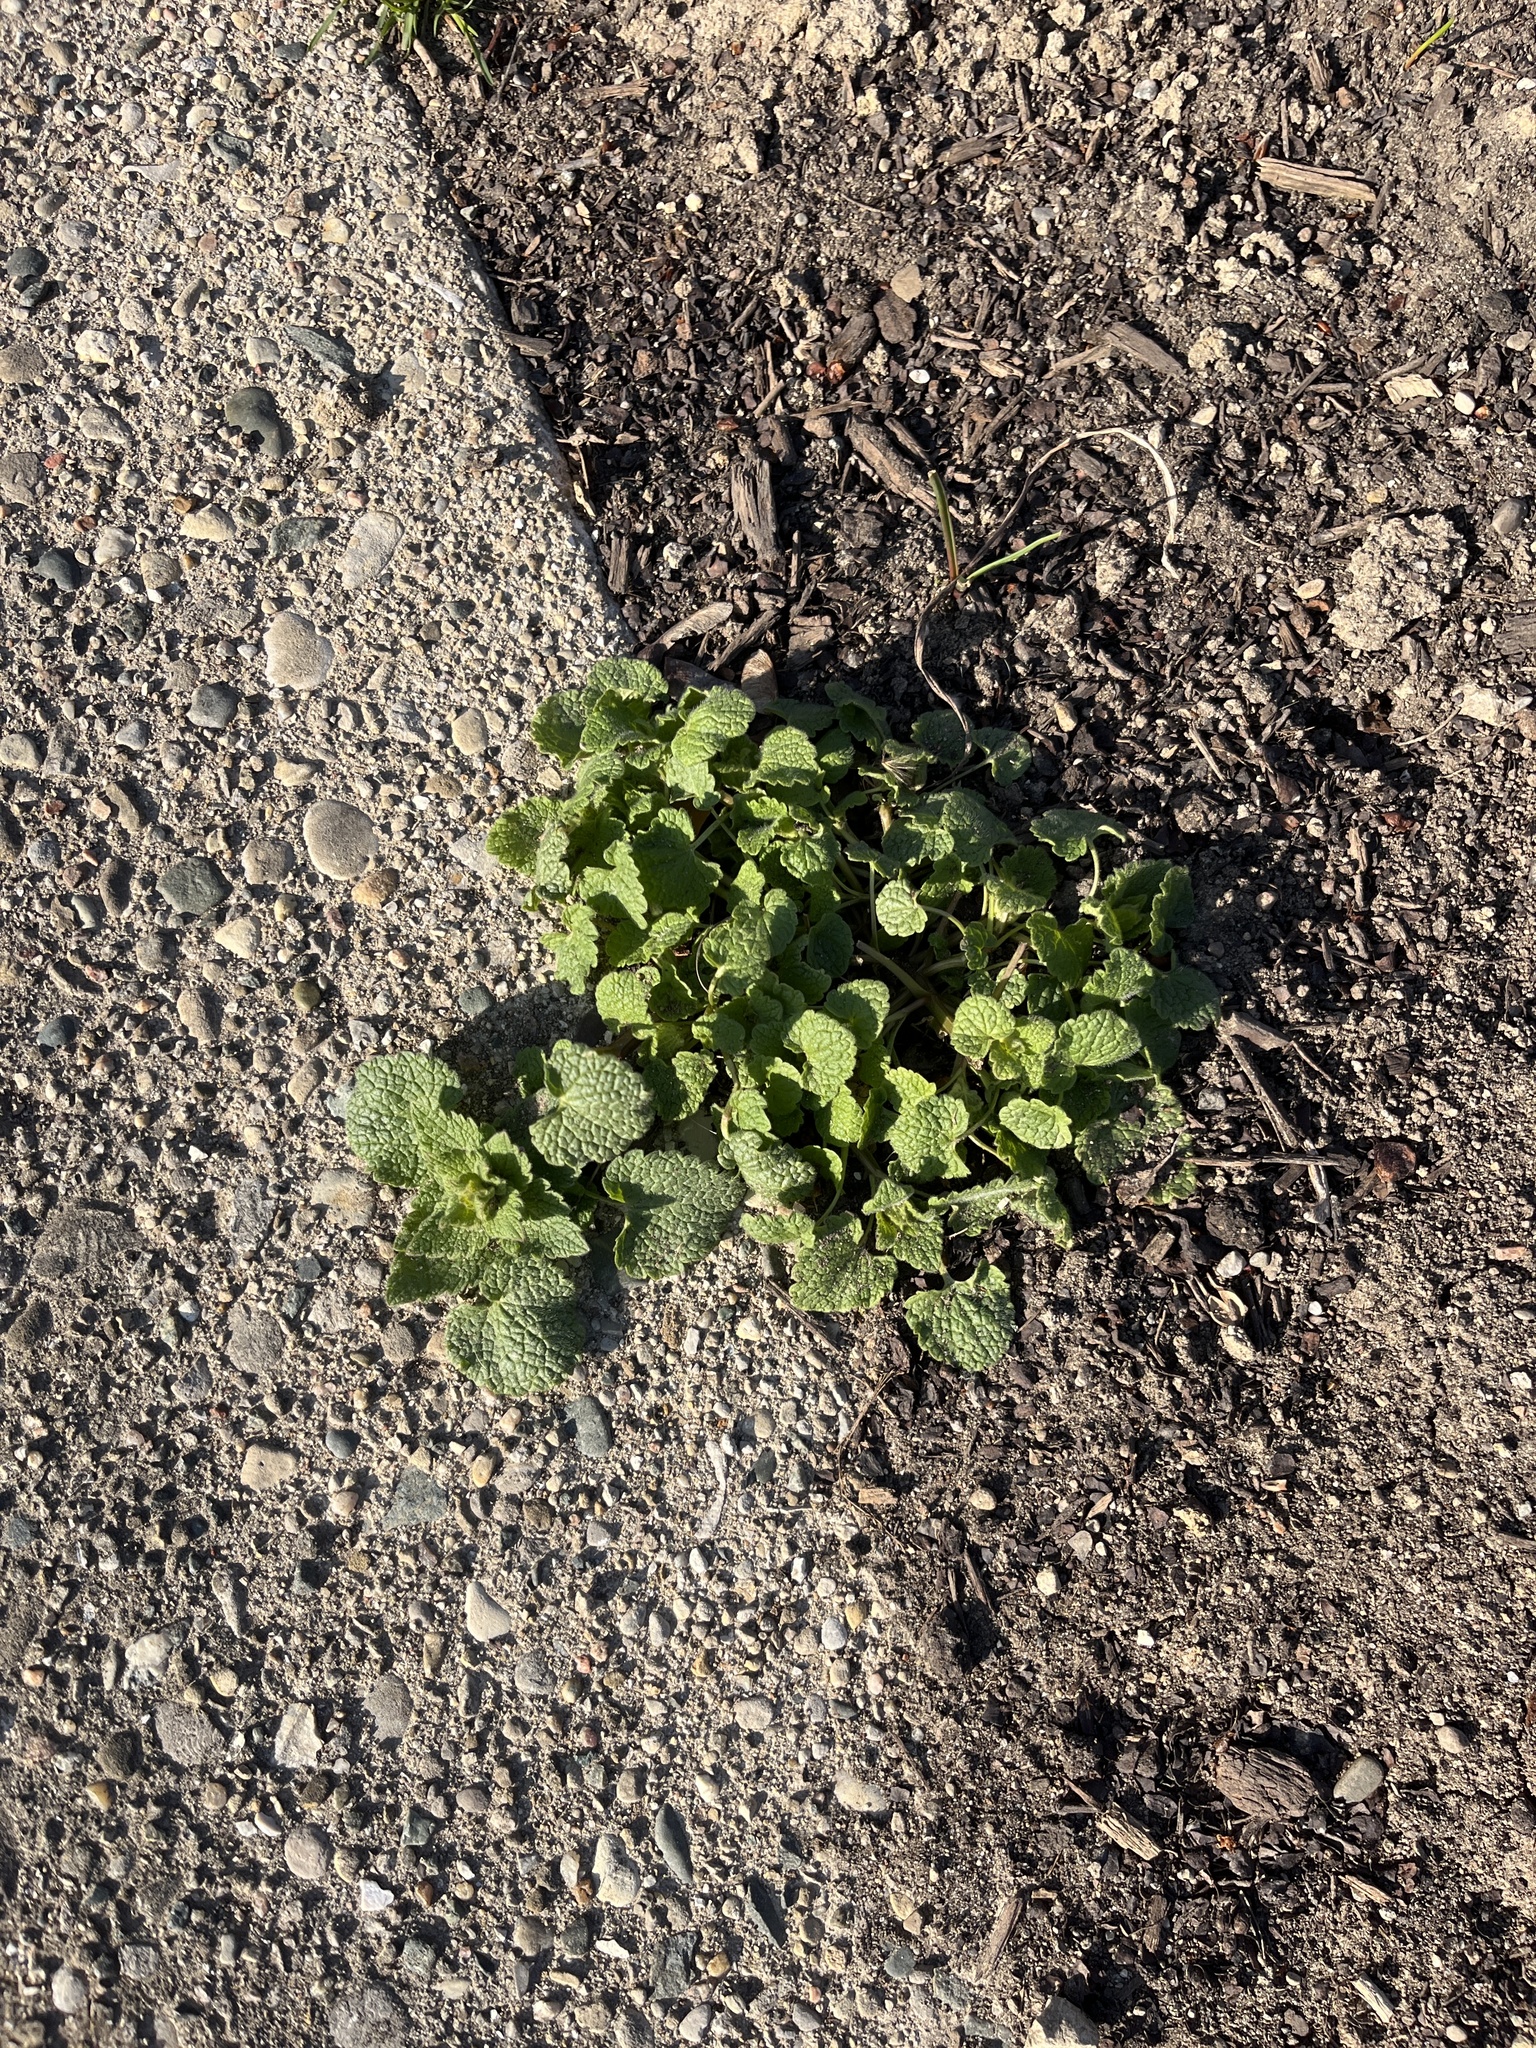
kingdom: Plantae
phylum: Tracheophyta
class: Magnoliopsida
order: Lamiales
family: Lamiaceae
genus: Lamium
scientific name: Lamium purpureum
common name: Red dead-nettle
